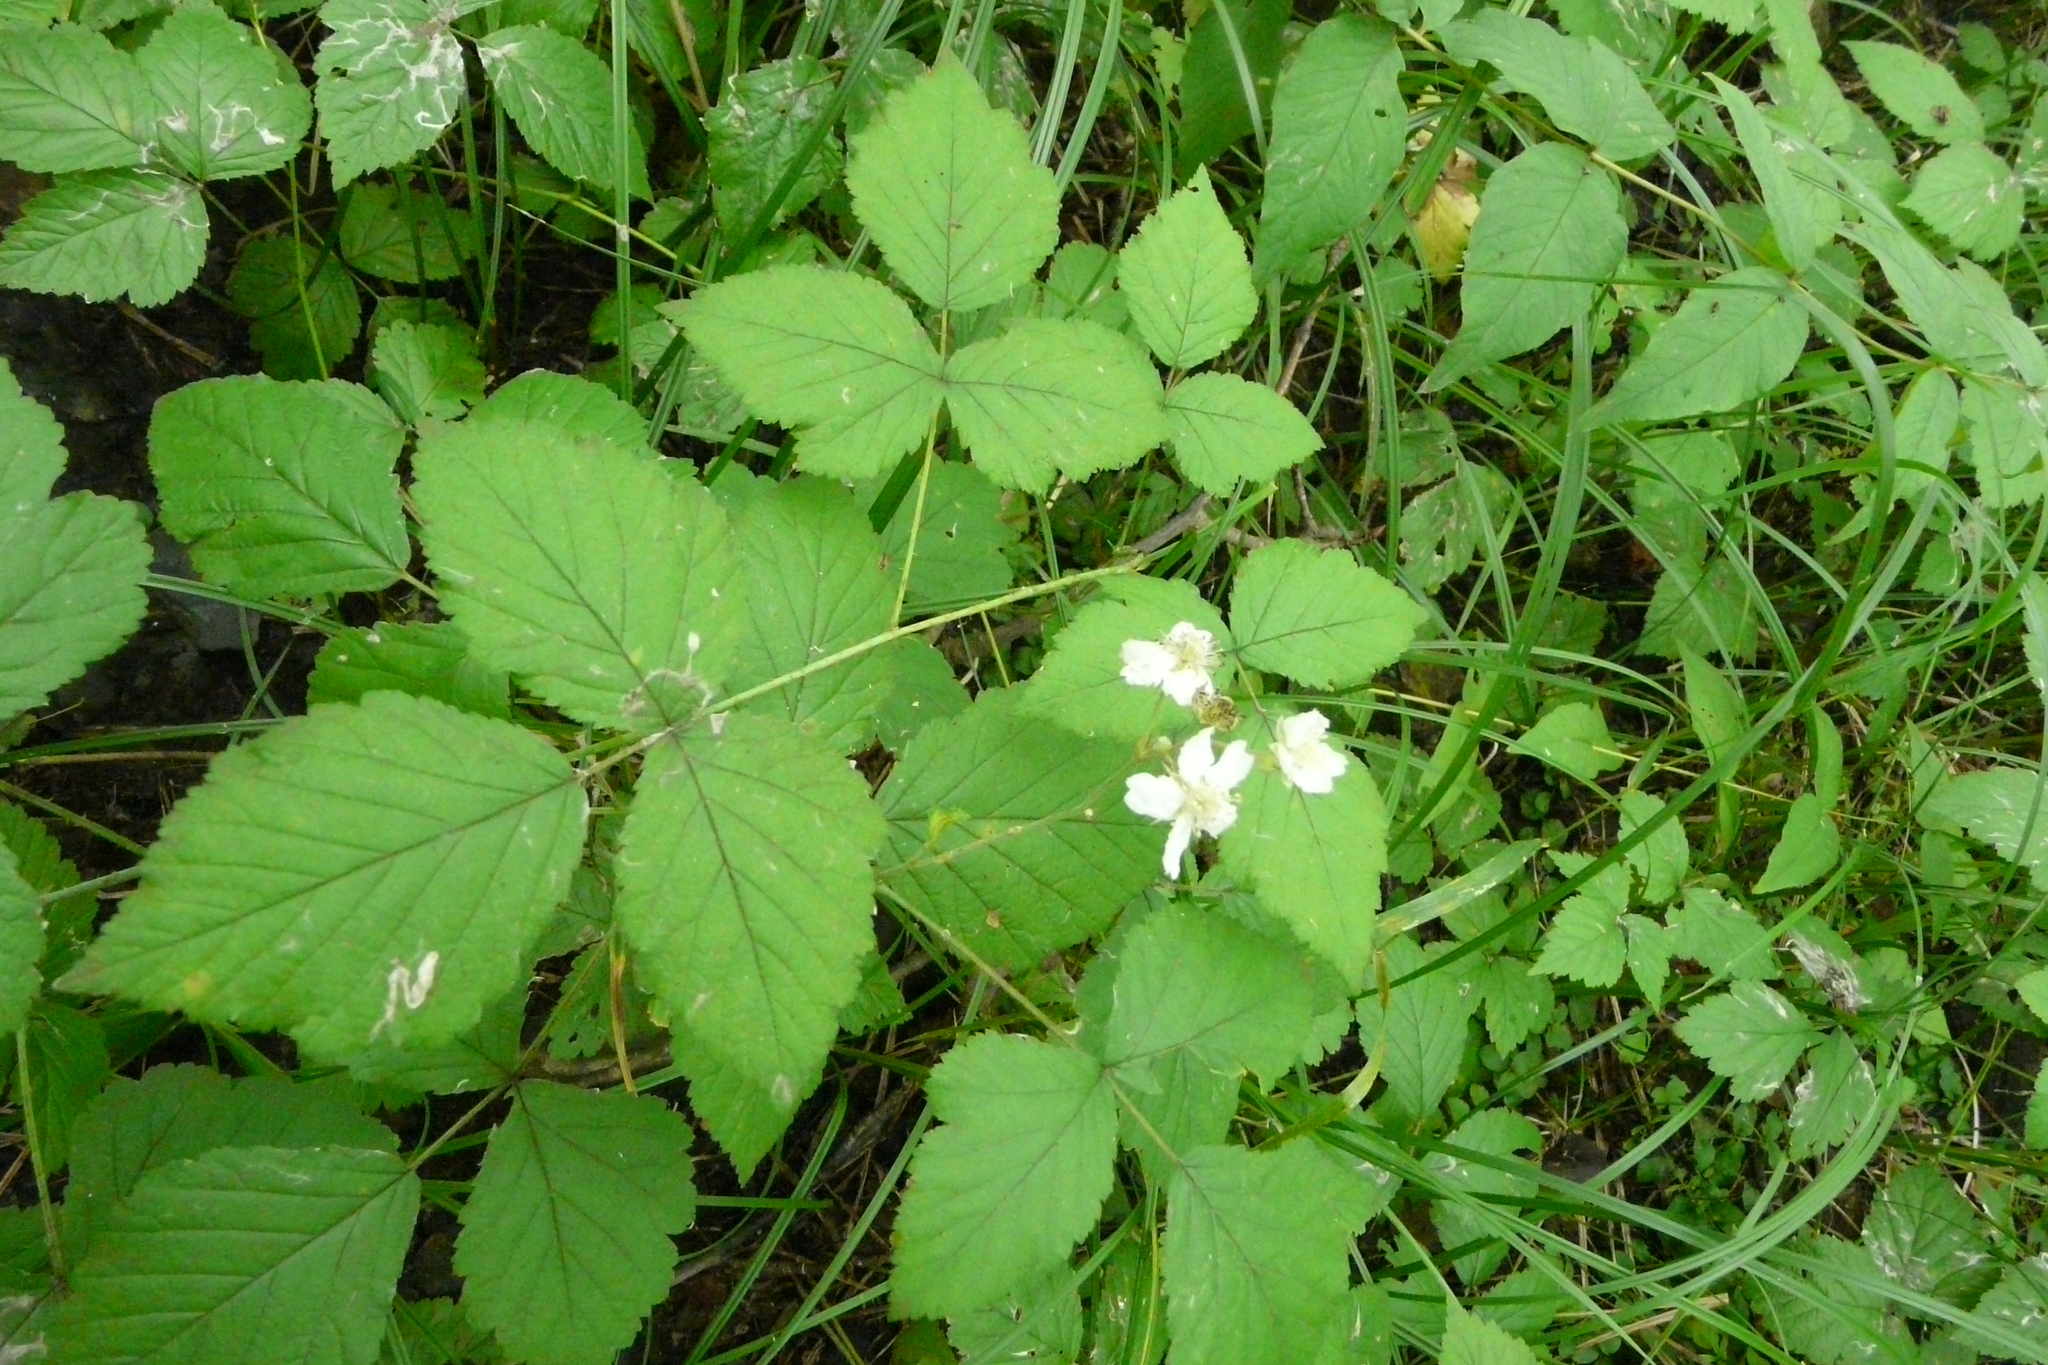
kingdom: Plantae
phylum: Tracheophyta
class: Magnoliopsida
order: Rosales
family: Rosaceae
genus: Rubus
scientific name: Rubus caesius
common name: Dewberry
